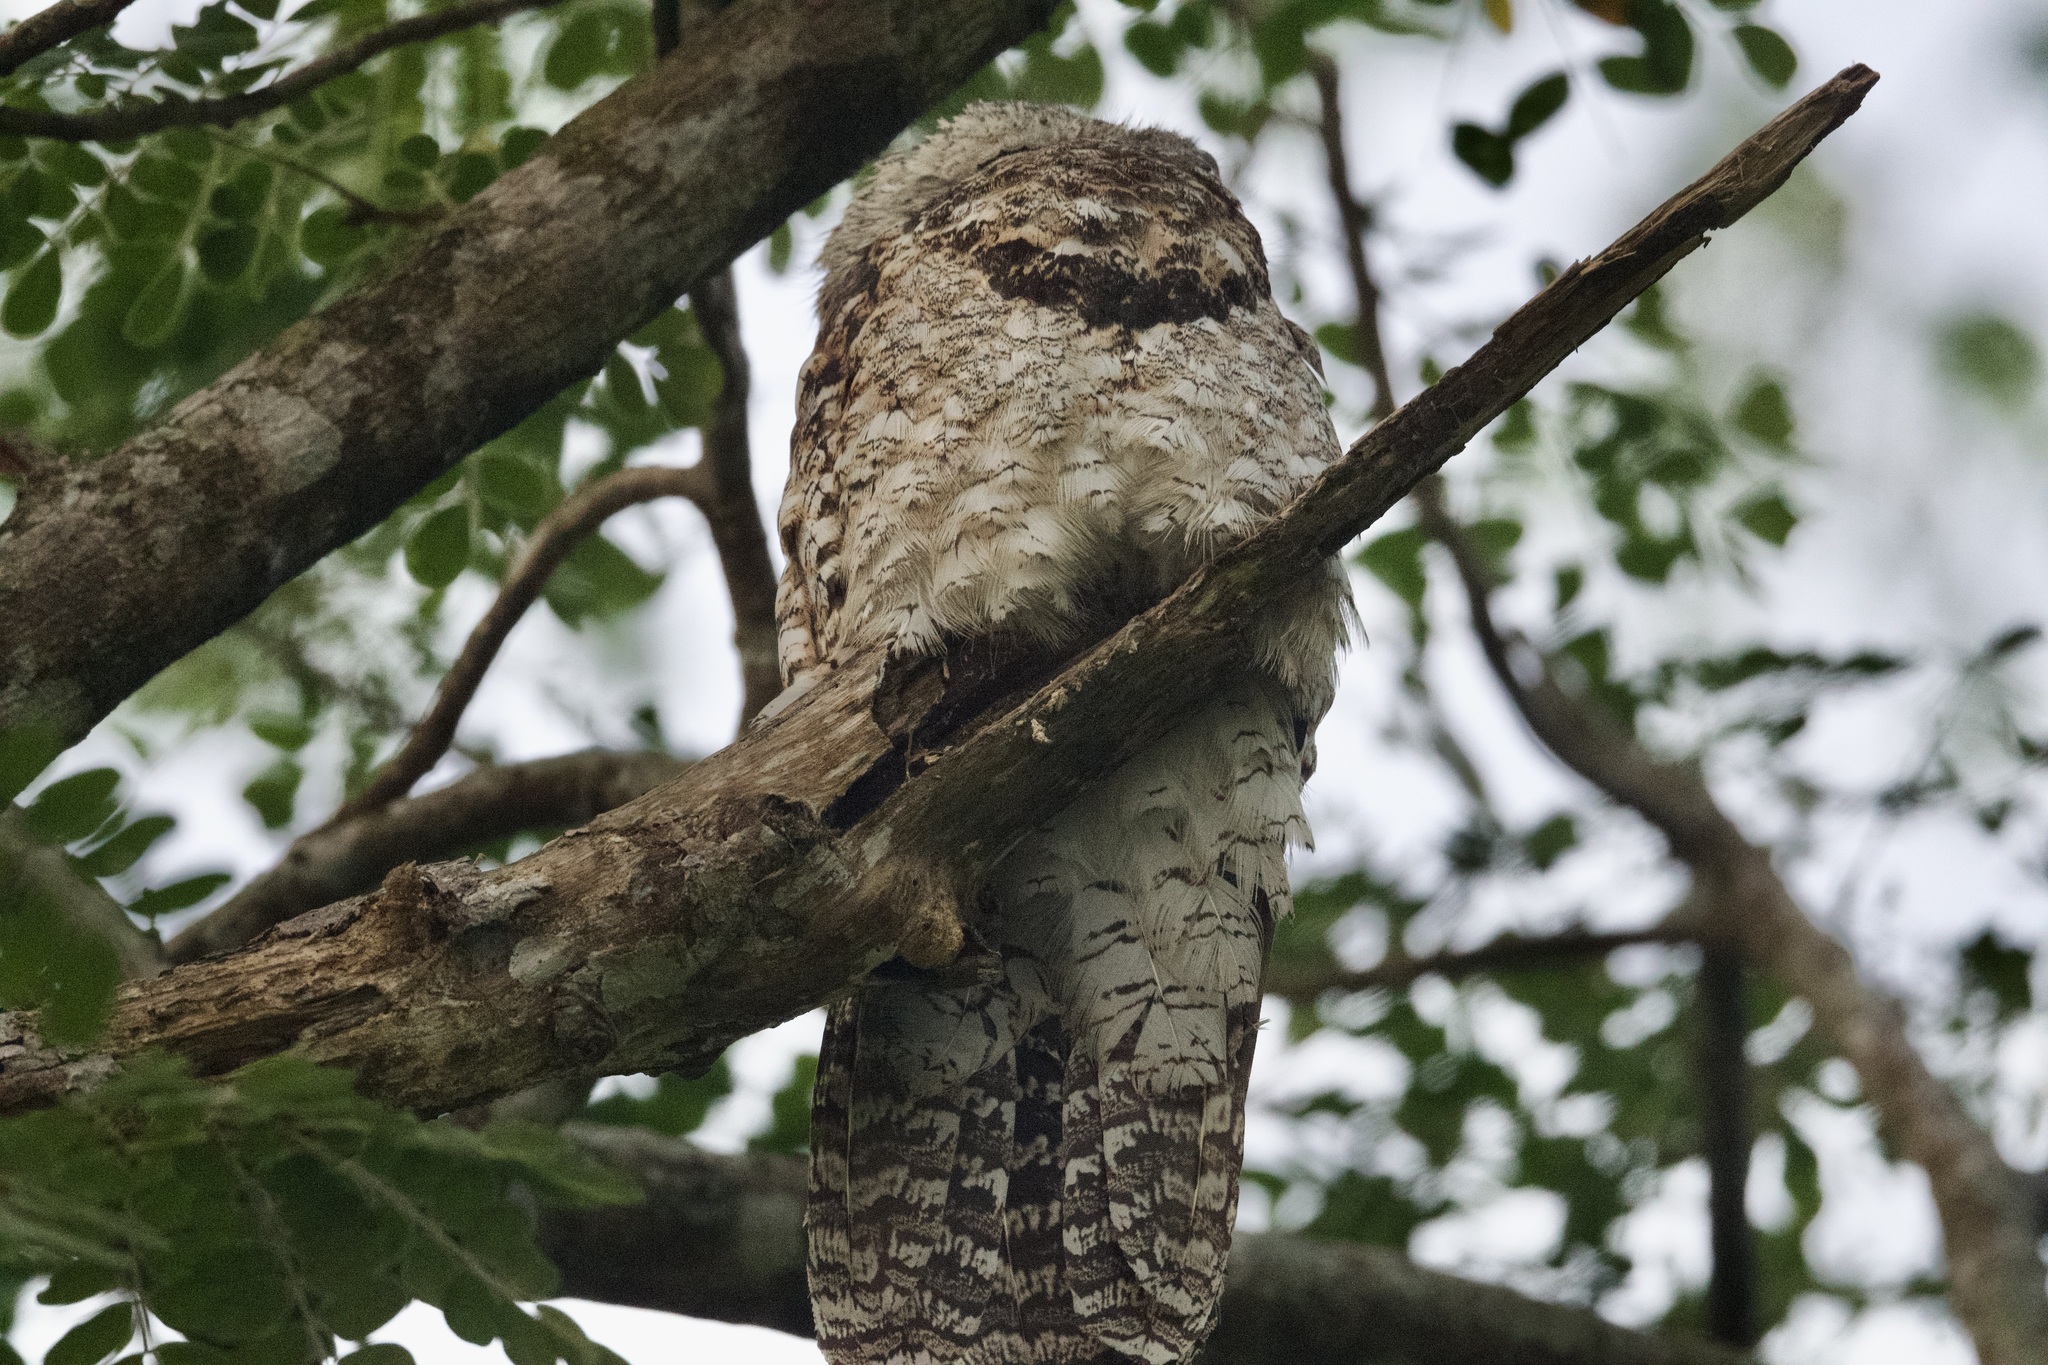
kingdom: Animalia
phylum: Chordata
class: Aves
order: Nyctibiiformes
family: Nyctibiidae
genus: Nyctibius
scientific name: Nyctibius grandis
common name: Great potoo
